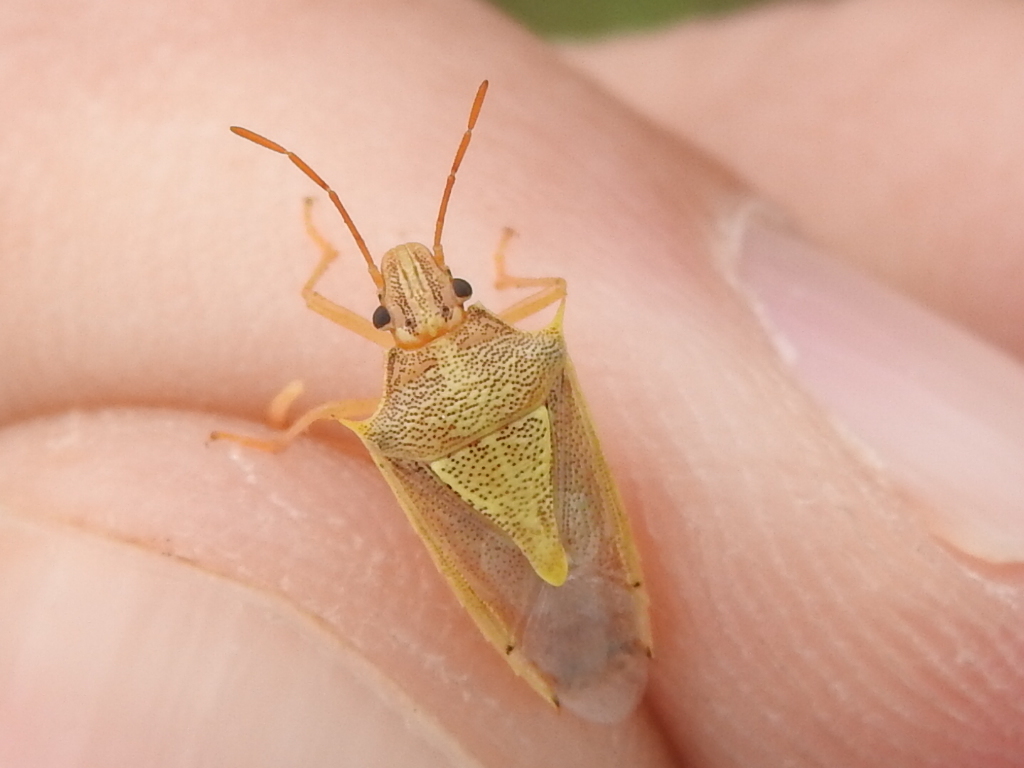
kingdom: Animalia
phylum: Arthropoda
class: Insecta
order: Hemiptera
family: Pentatomidae
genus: Oebalus
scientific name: Oebalus pugnax
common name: Rice stink bug
